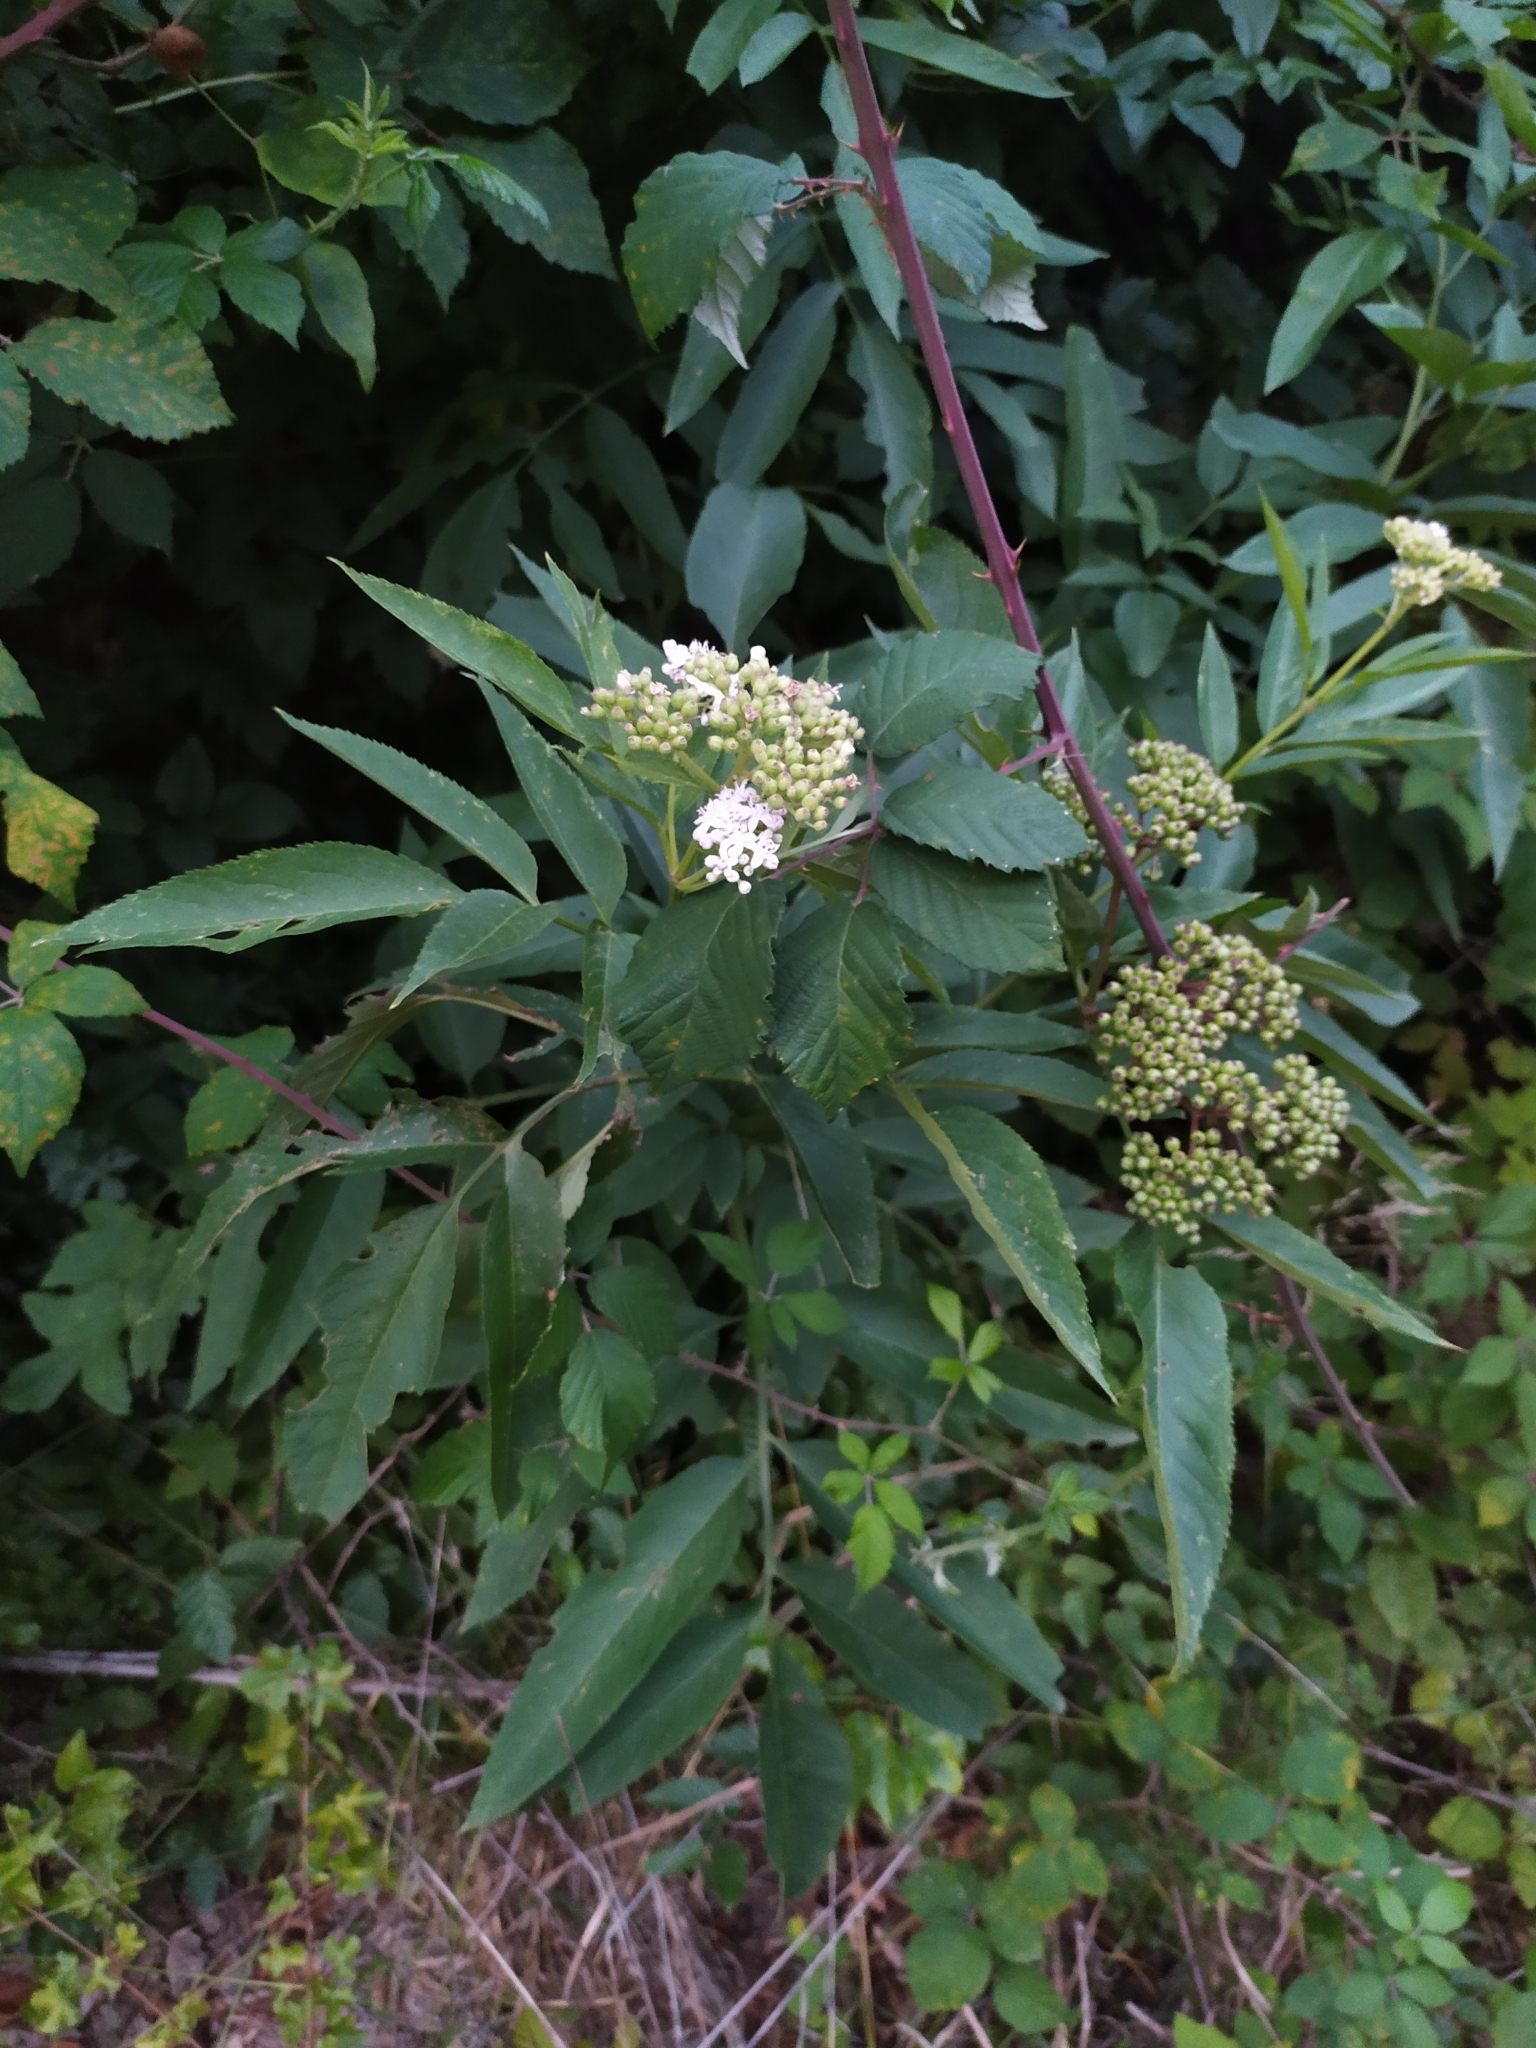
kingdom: Plantae
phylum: Tracheophyta
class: Magnoliopsida
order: Dipsacales
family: Viburnaceae
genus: Sambucus
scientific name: Sambucus ebulus
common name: Dwarf elder
